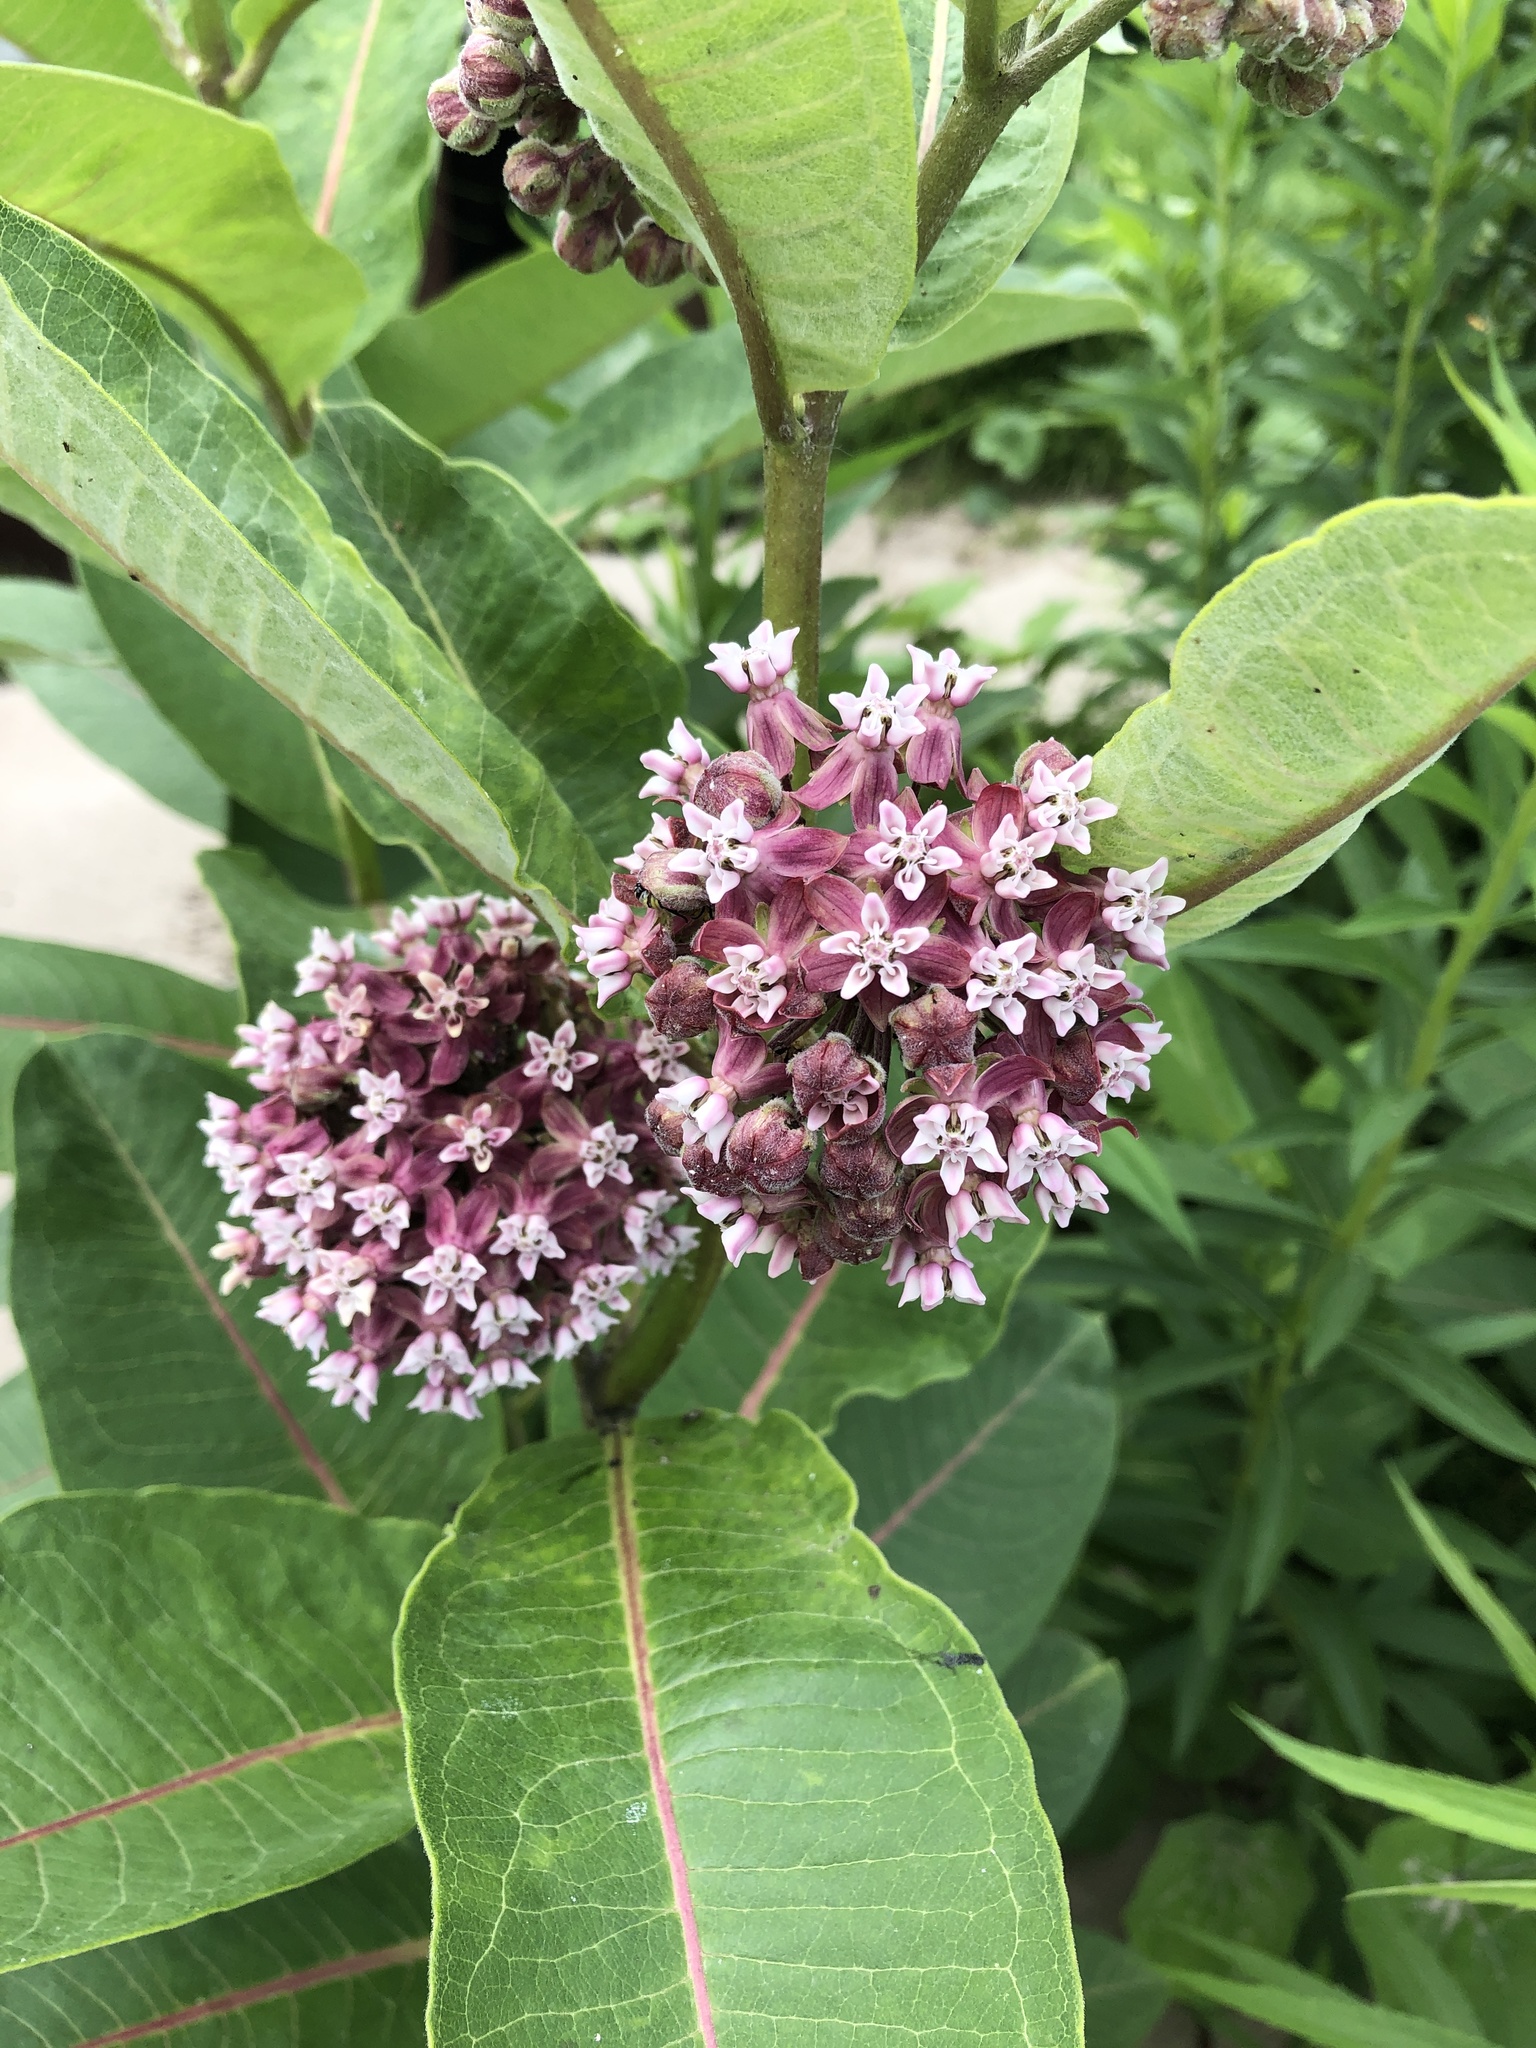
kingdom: Plantae
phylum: Tracheophyta
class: Magnoliopsida
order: Gentianales
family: Apocynaceae
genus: Asclepias
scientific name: Asclepias syriaca
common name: Common milkweed
